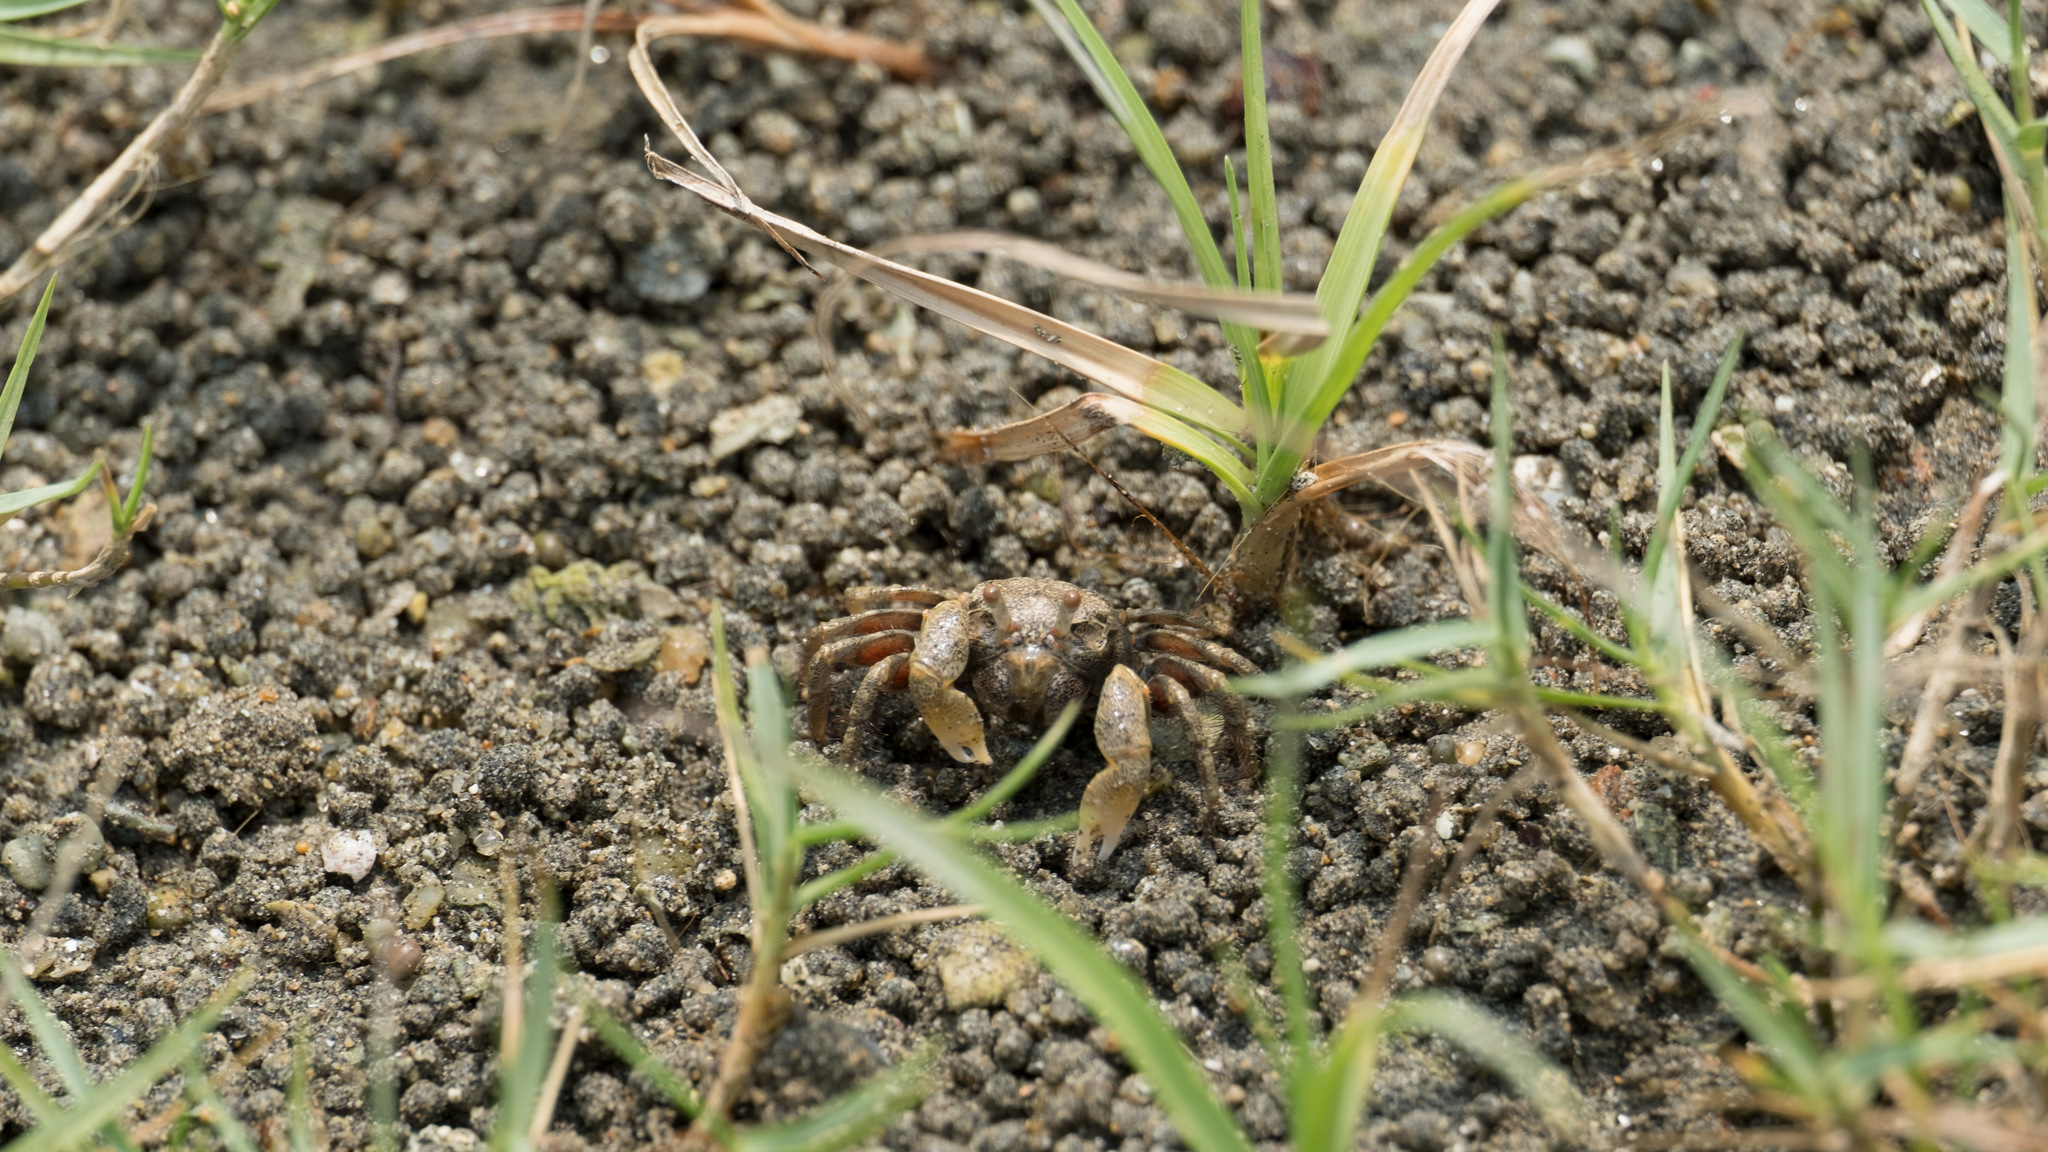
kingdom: Animalia
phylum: Arthropoda
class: Malacostraca
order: Decapoda
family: Dotillidae
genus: Scopimera
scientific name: Scopimera intermedia
